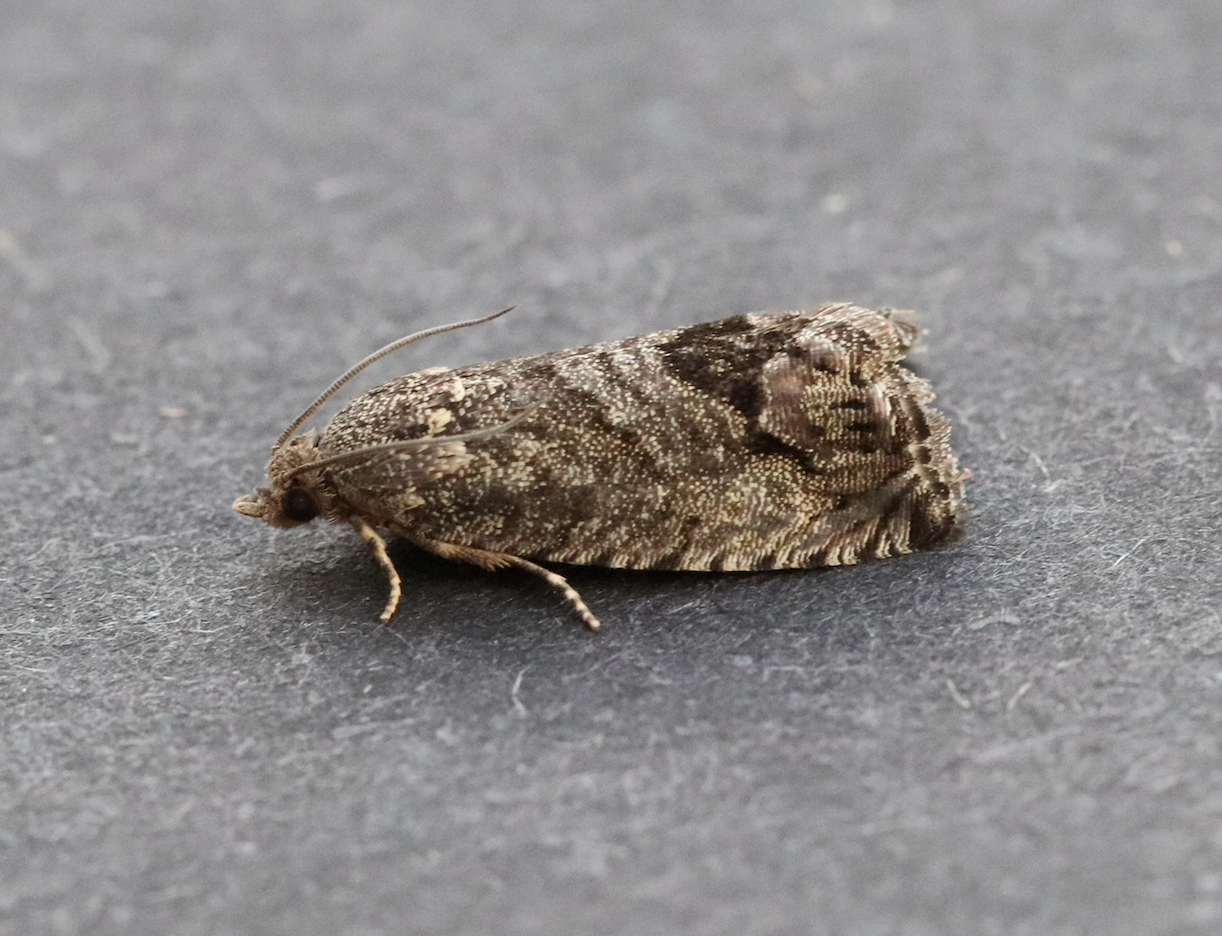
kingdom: Animalia
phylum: Arthropoda
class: Insecta
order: Lepidoptera
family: Tortricidae
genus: Cydia
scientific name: Cydia splendana
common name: De: kastanienwickler, eichenwickler es: oruga de la castaña fr: carpocapse des châtaignes it: cidia o tortrice tardiva delle castagne pt: bichado das castanhas gb: acorn moth, chestnut fruit tortrix
